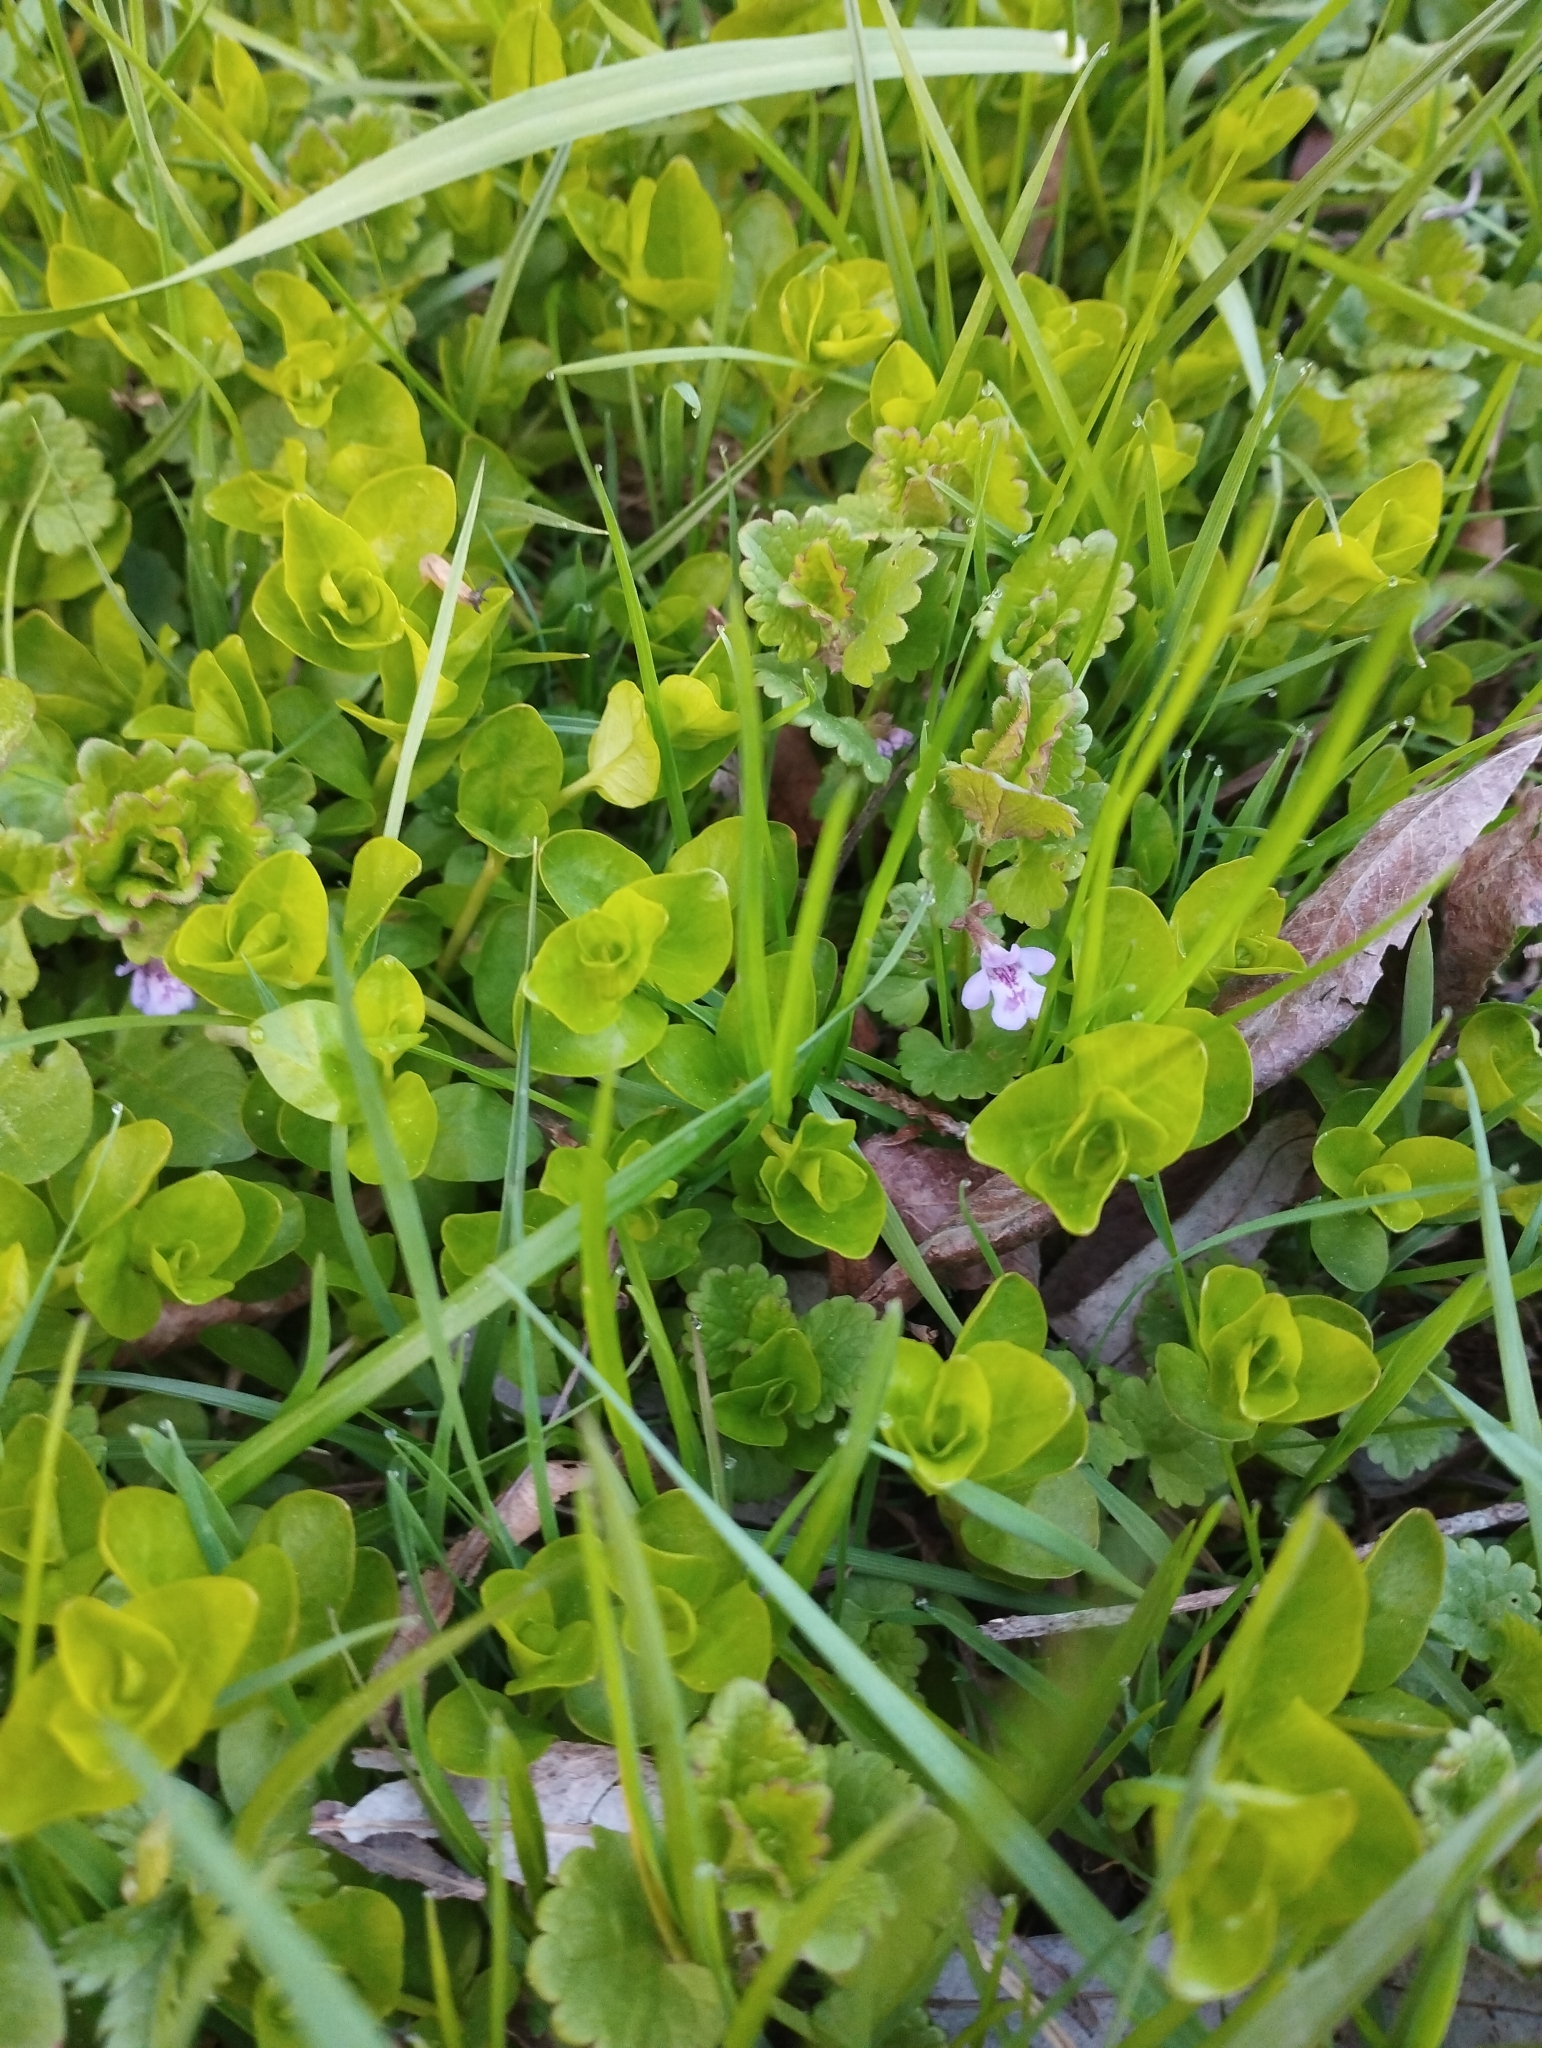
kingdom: Plantae
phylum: Tracheophyta
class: Magnoliopsida
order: Lamiales
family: Lamiaceae
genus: Glechoma
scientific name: Glechoma hederacea
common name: Ground ivy
